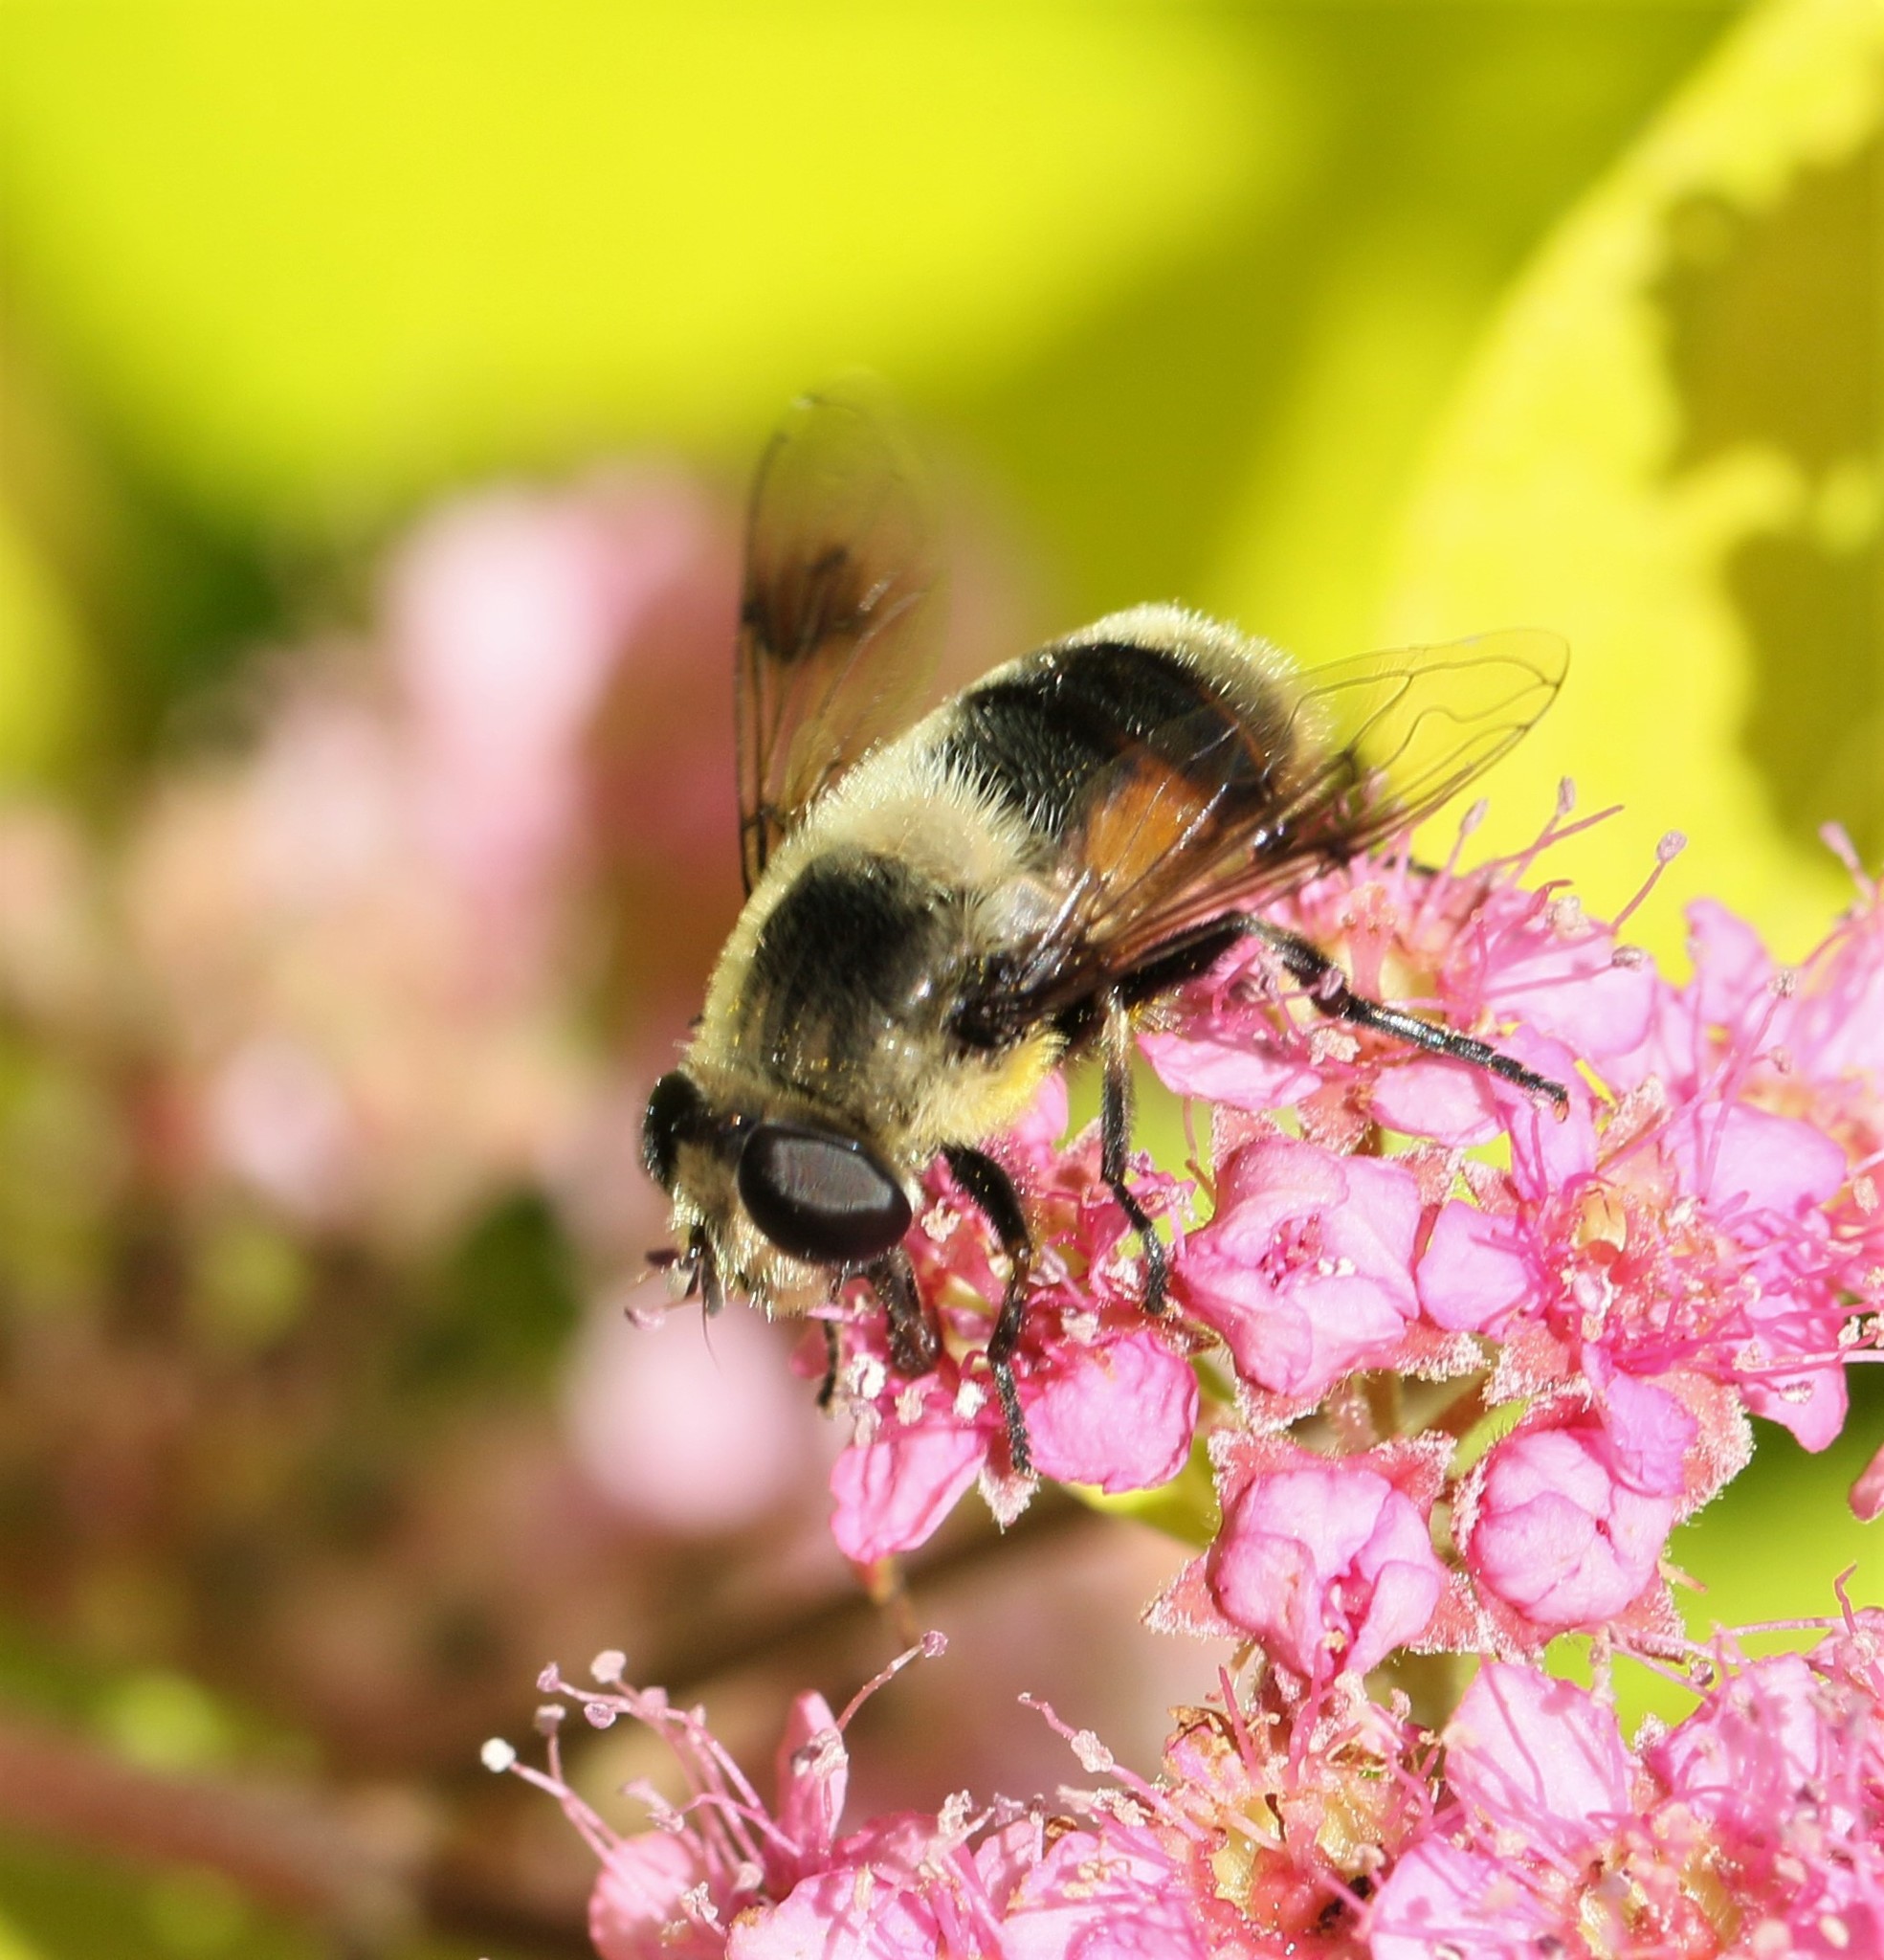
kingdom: Animalia
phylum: Arthropoda
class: Insecta
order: Diptera
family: Syrphidae
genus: Eristalis
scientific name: Eristalis anthophorina
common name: Orange-spotted drone fly
